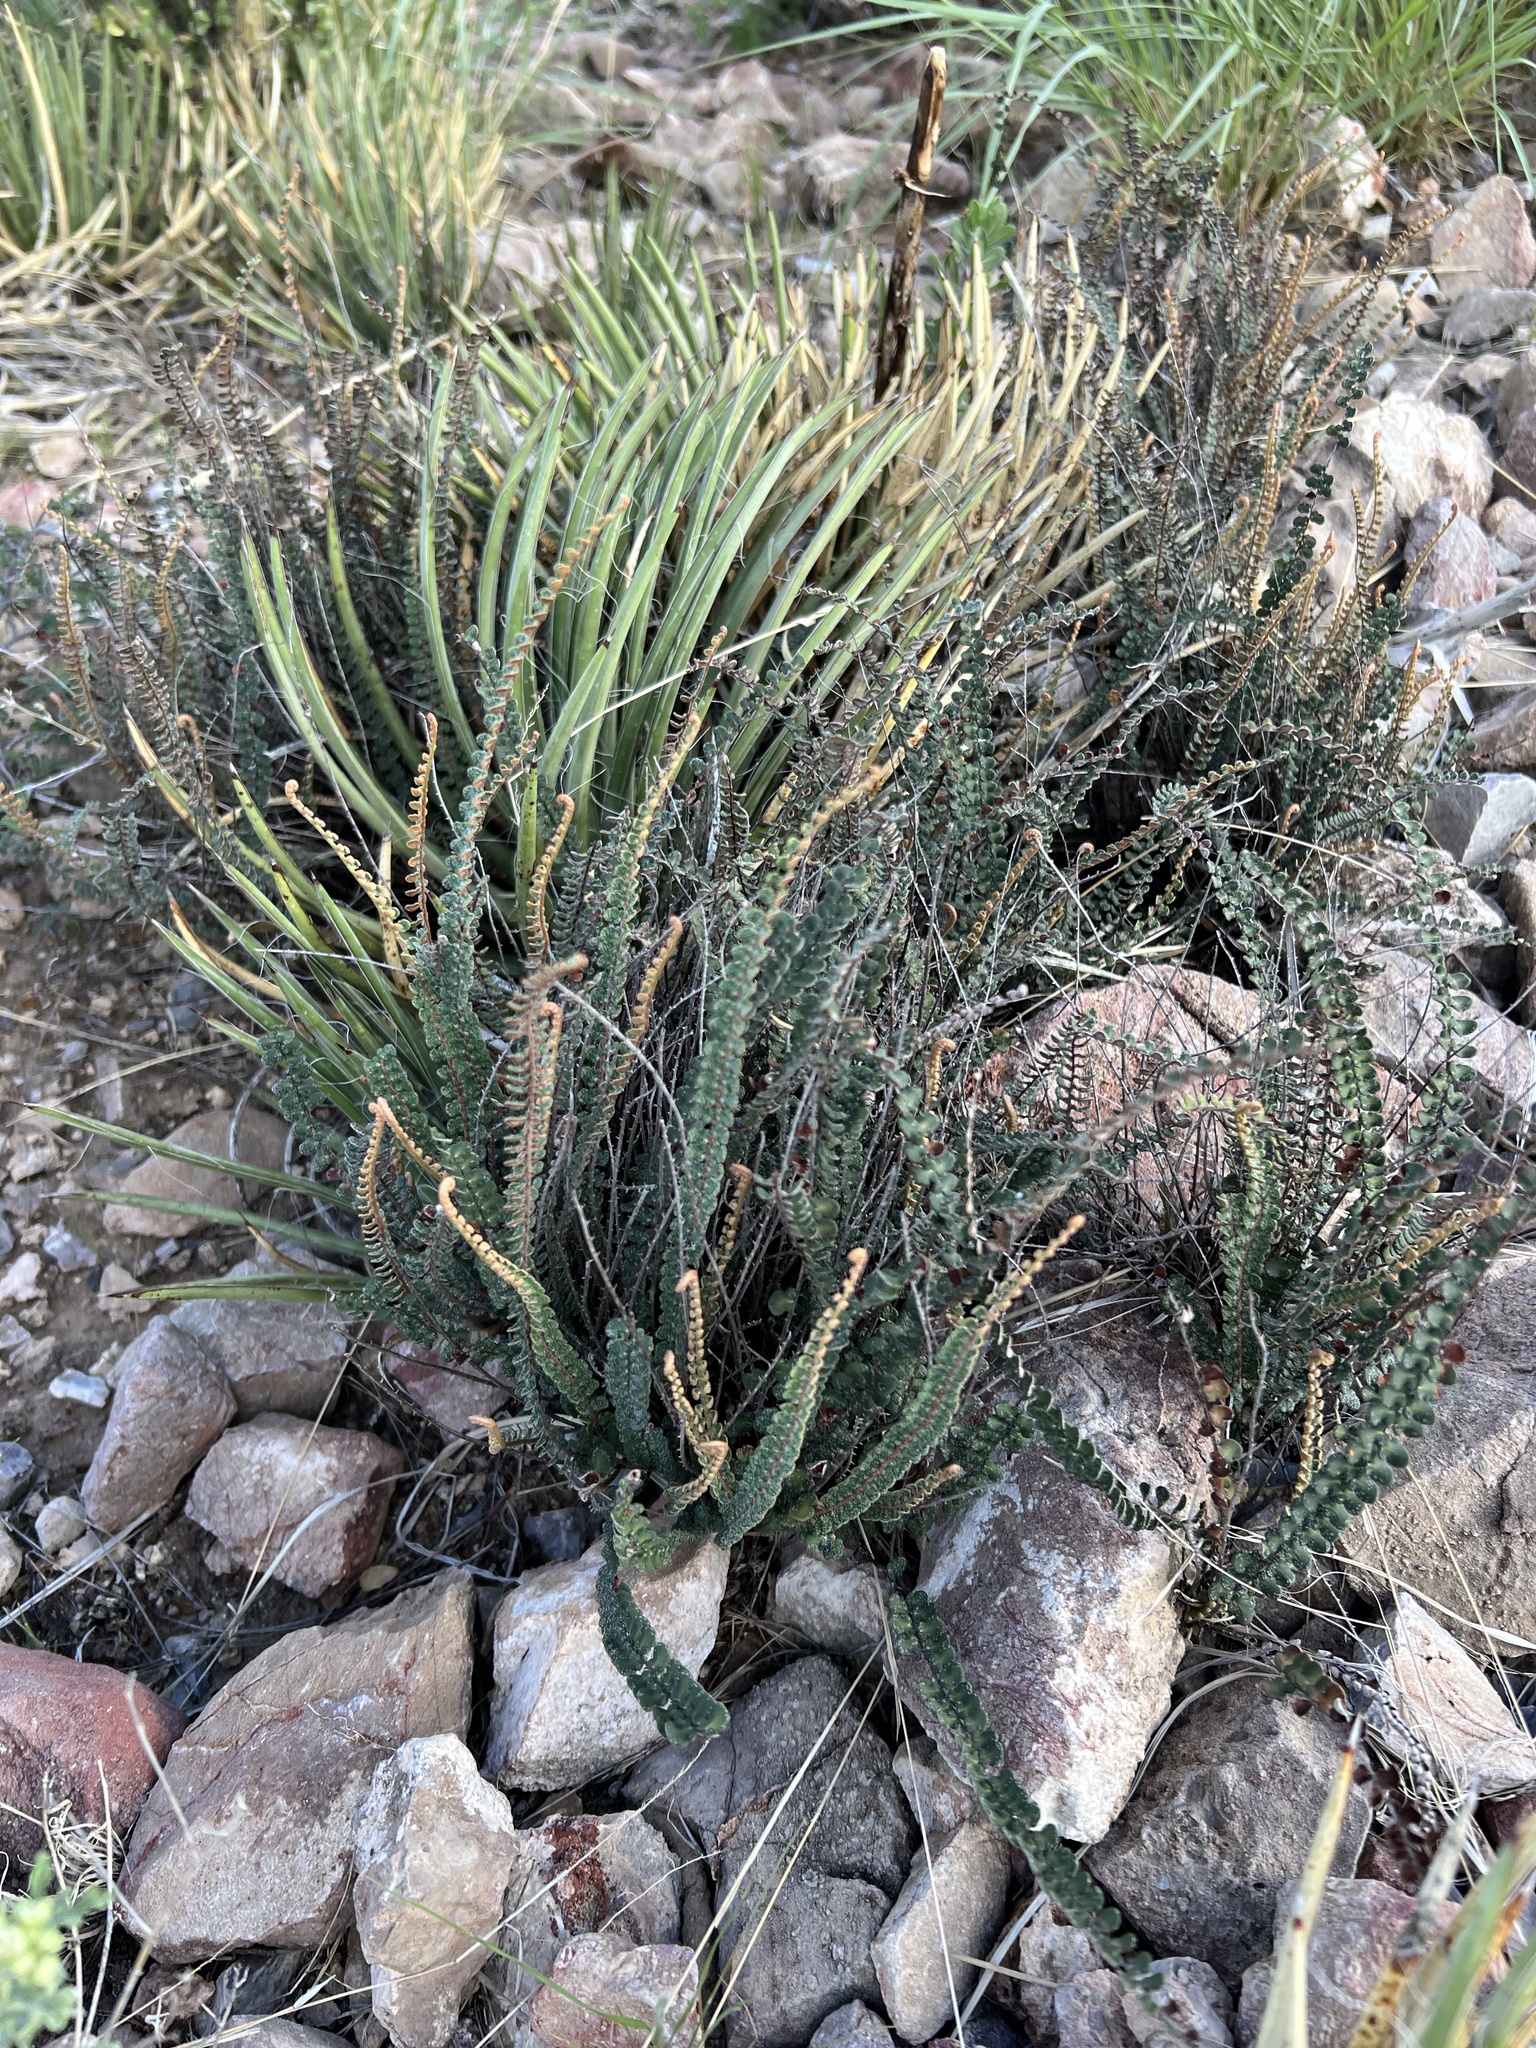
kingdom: Plantae
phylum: Tracheophyta
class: Polypodiopsida
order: Polypodiales
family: Pteridaceae
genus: Astrolepis
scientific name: Astrolepis cochisensis
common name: Scaly cloak fern
